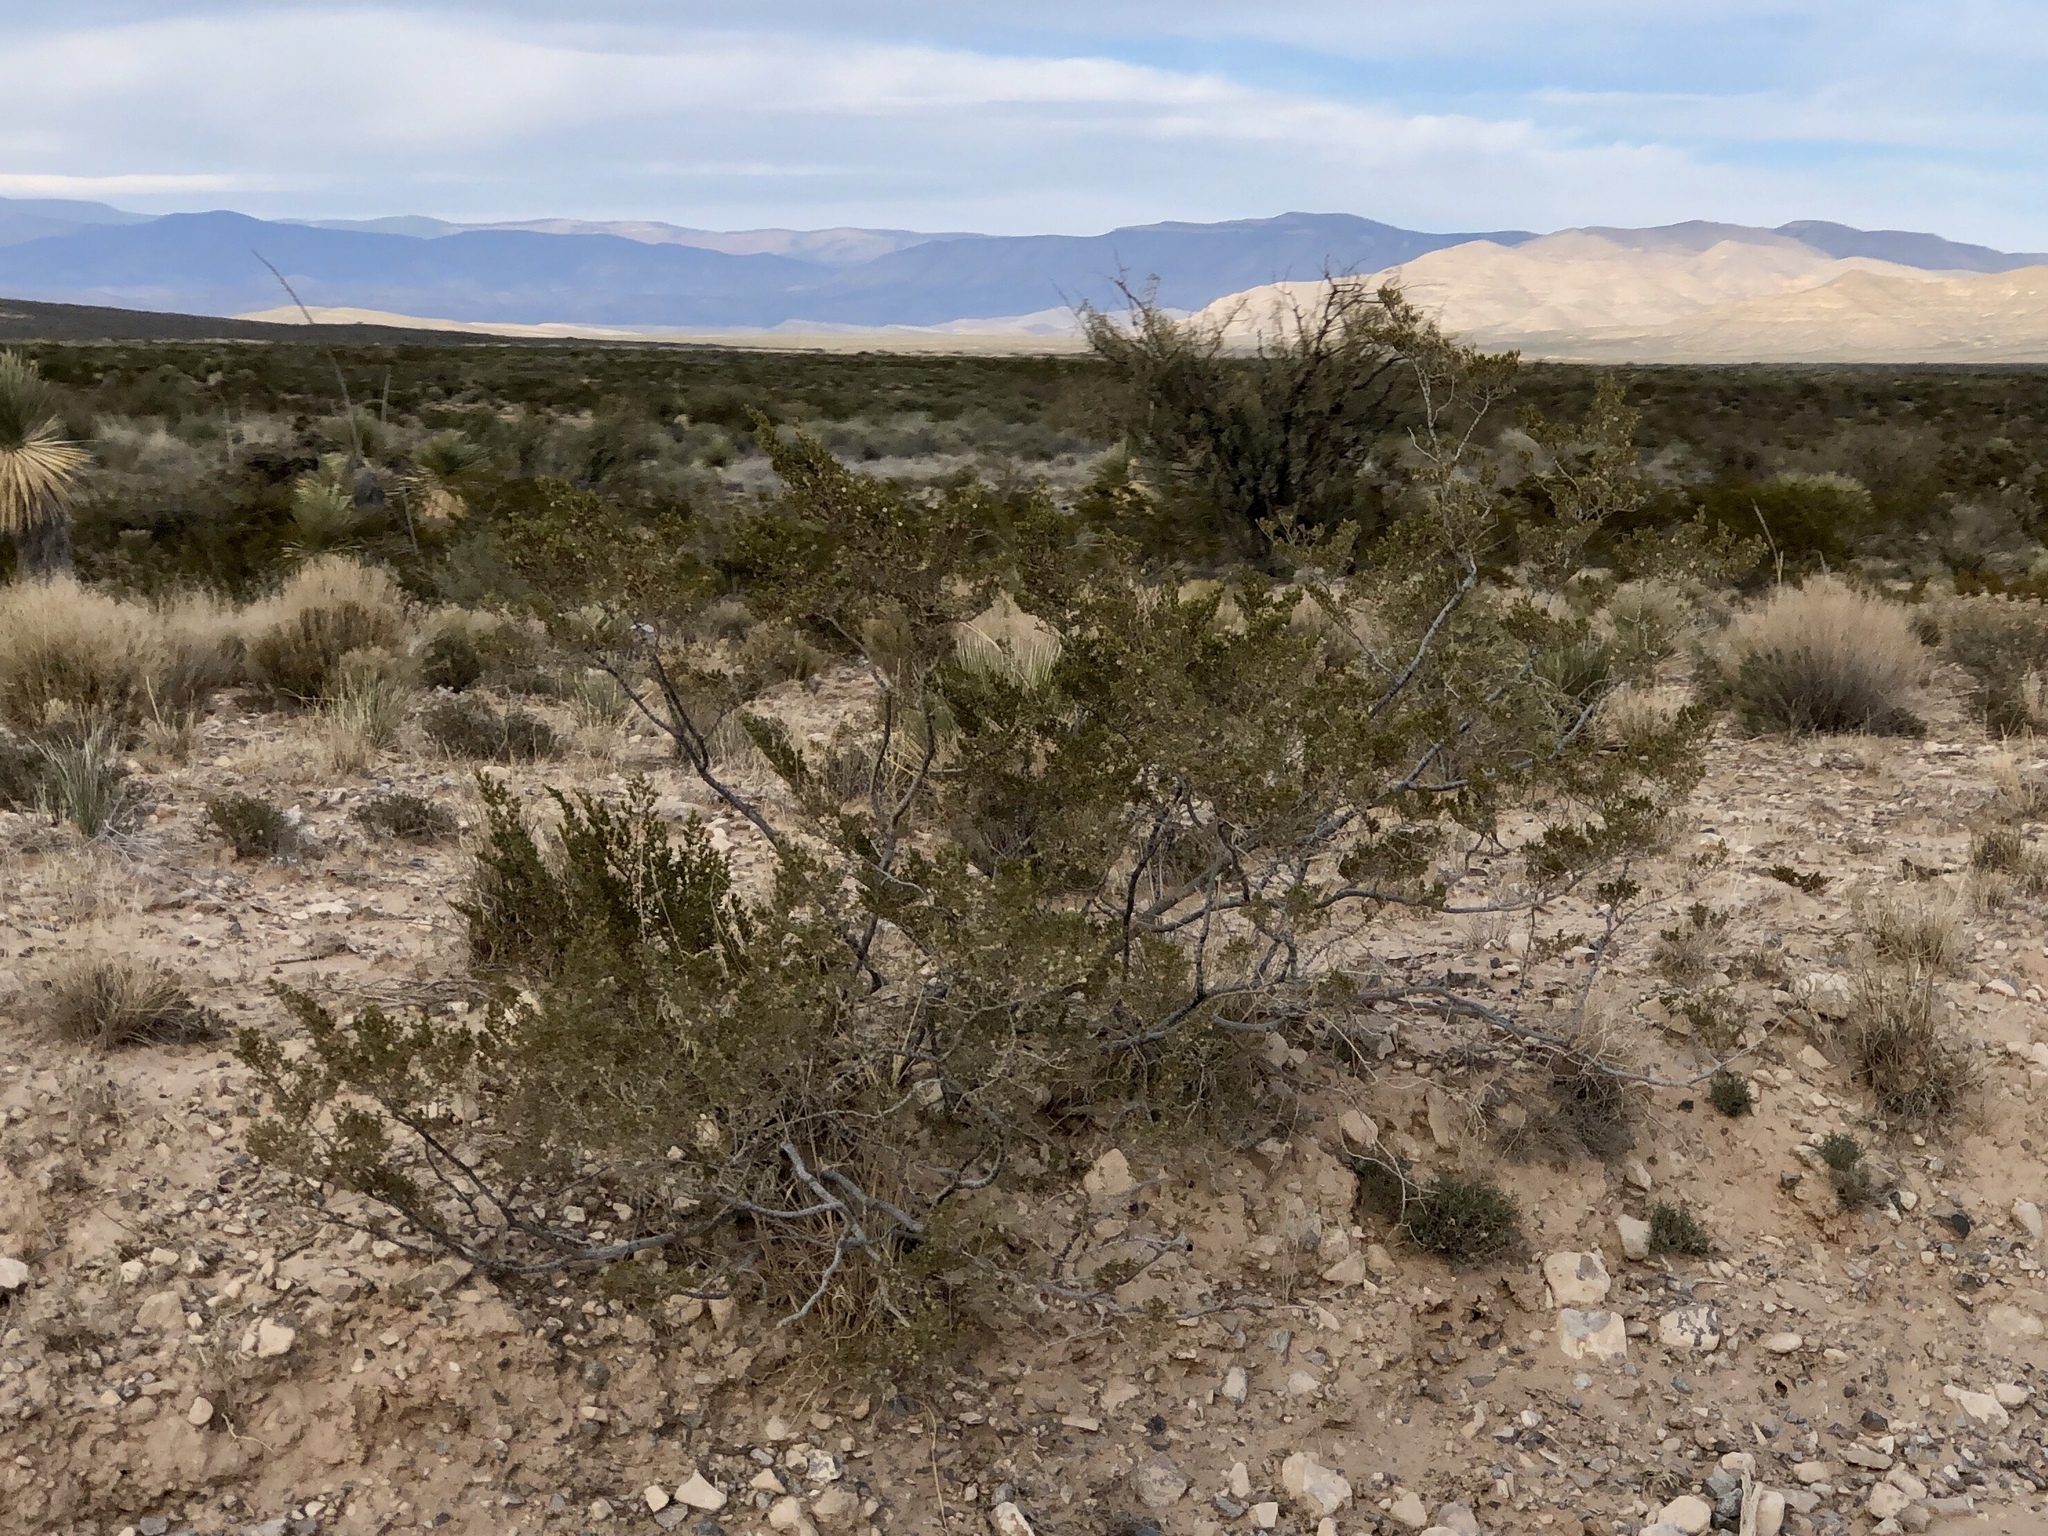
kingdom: Plantae
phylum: Tracheophyta
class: Magnoliopsida
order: Zygophyllales
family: Zygophyllaceae
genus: Larrea
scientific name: Larrea tridentata
